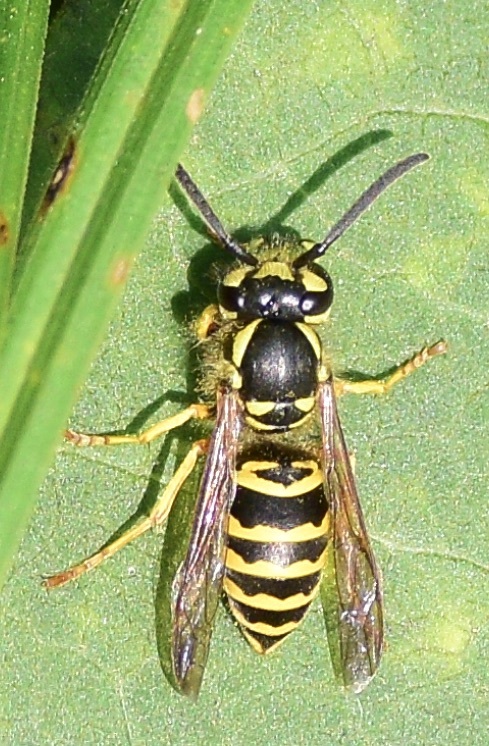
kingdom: Animalia
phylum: Arthropoda
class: Insecta
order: Hymenoptera
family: Vespidae
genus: Vespula
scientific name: Vespula maculifrons
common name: Eastern yellowjacket
